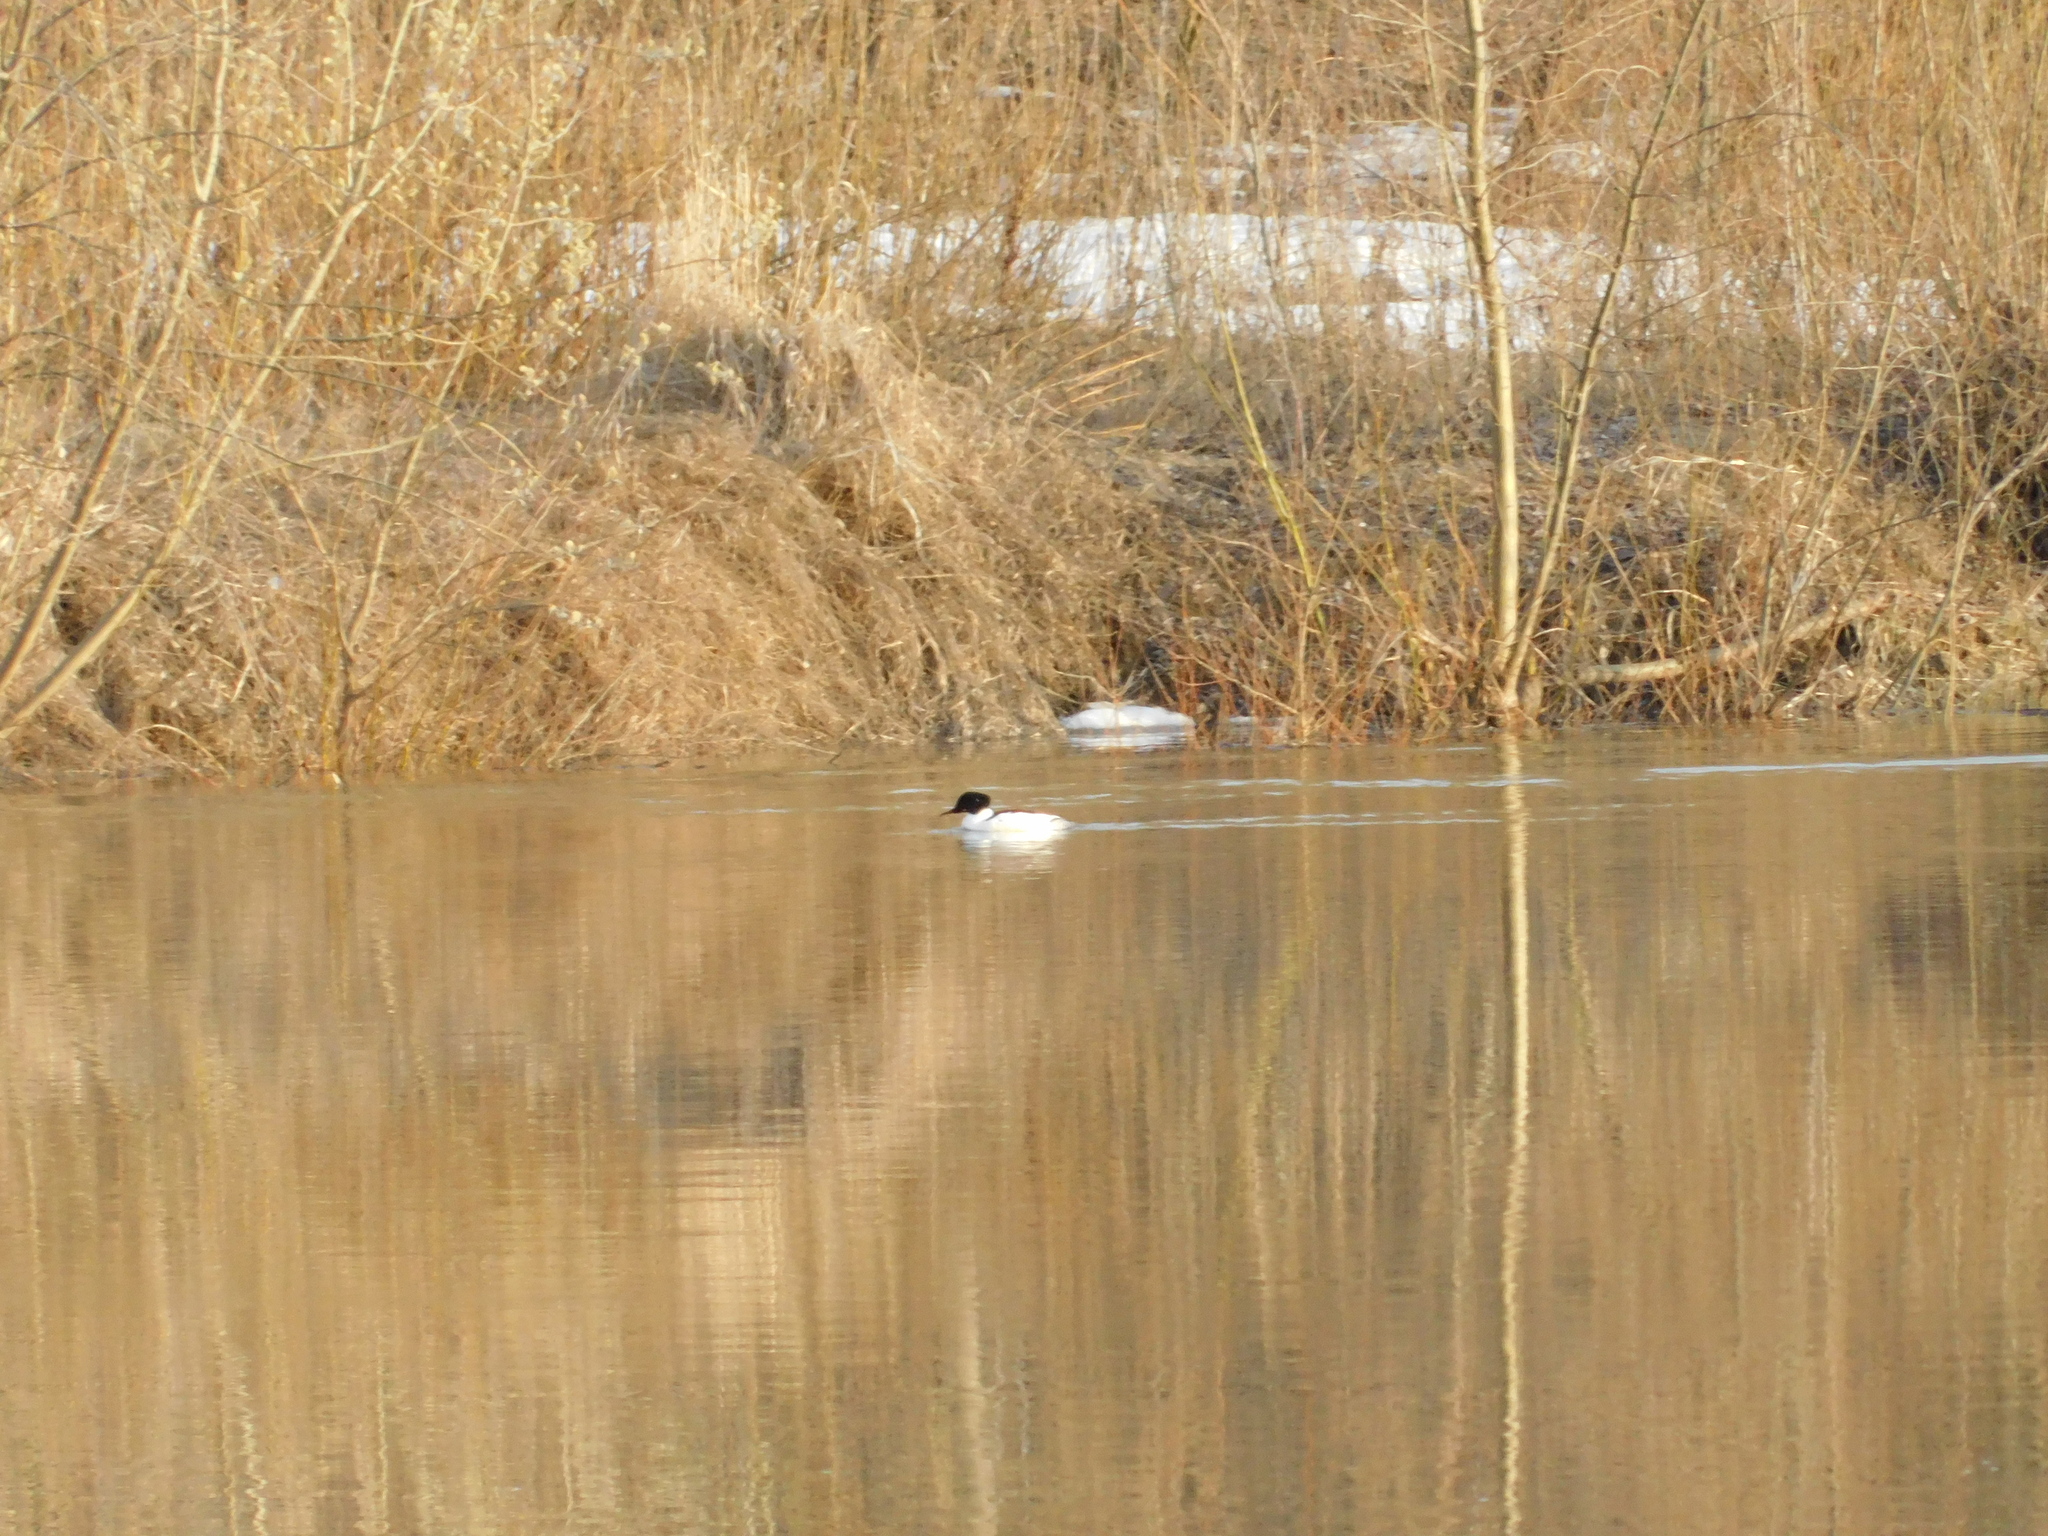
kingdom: Animalia
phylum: Chordata
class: Aves
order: Anseriformes
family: Anatidae
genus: Mergus
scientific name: Mergus merganser
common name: Common merganser
